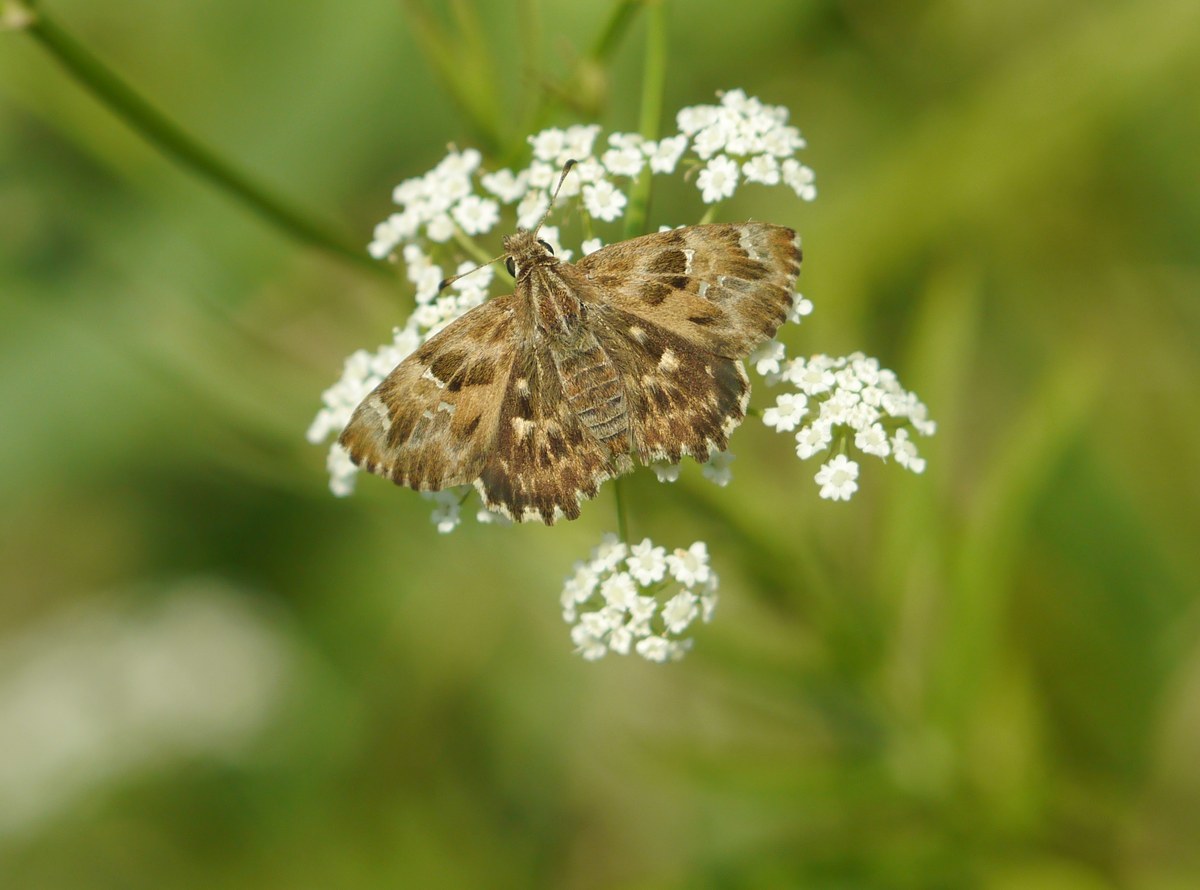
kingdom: Animalia
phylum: Arthropoda
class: Insecta
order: Lepidoptera
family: Hesperiidae
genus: Carcharodus
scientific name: Carcharodus alceae
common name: Mallow skipper
